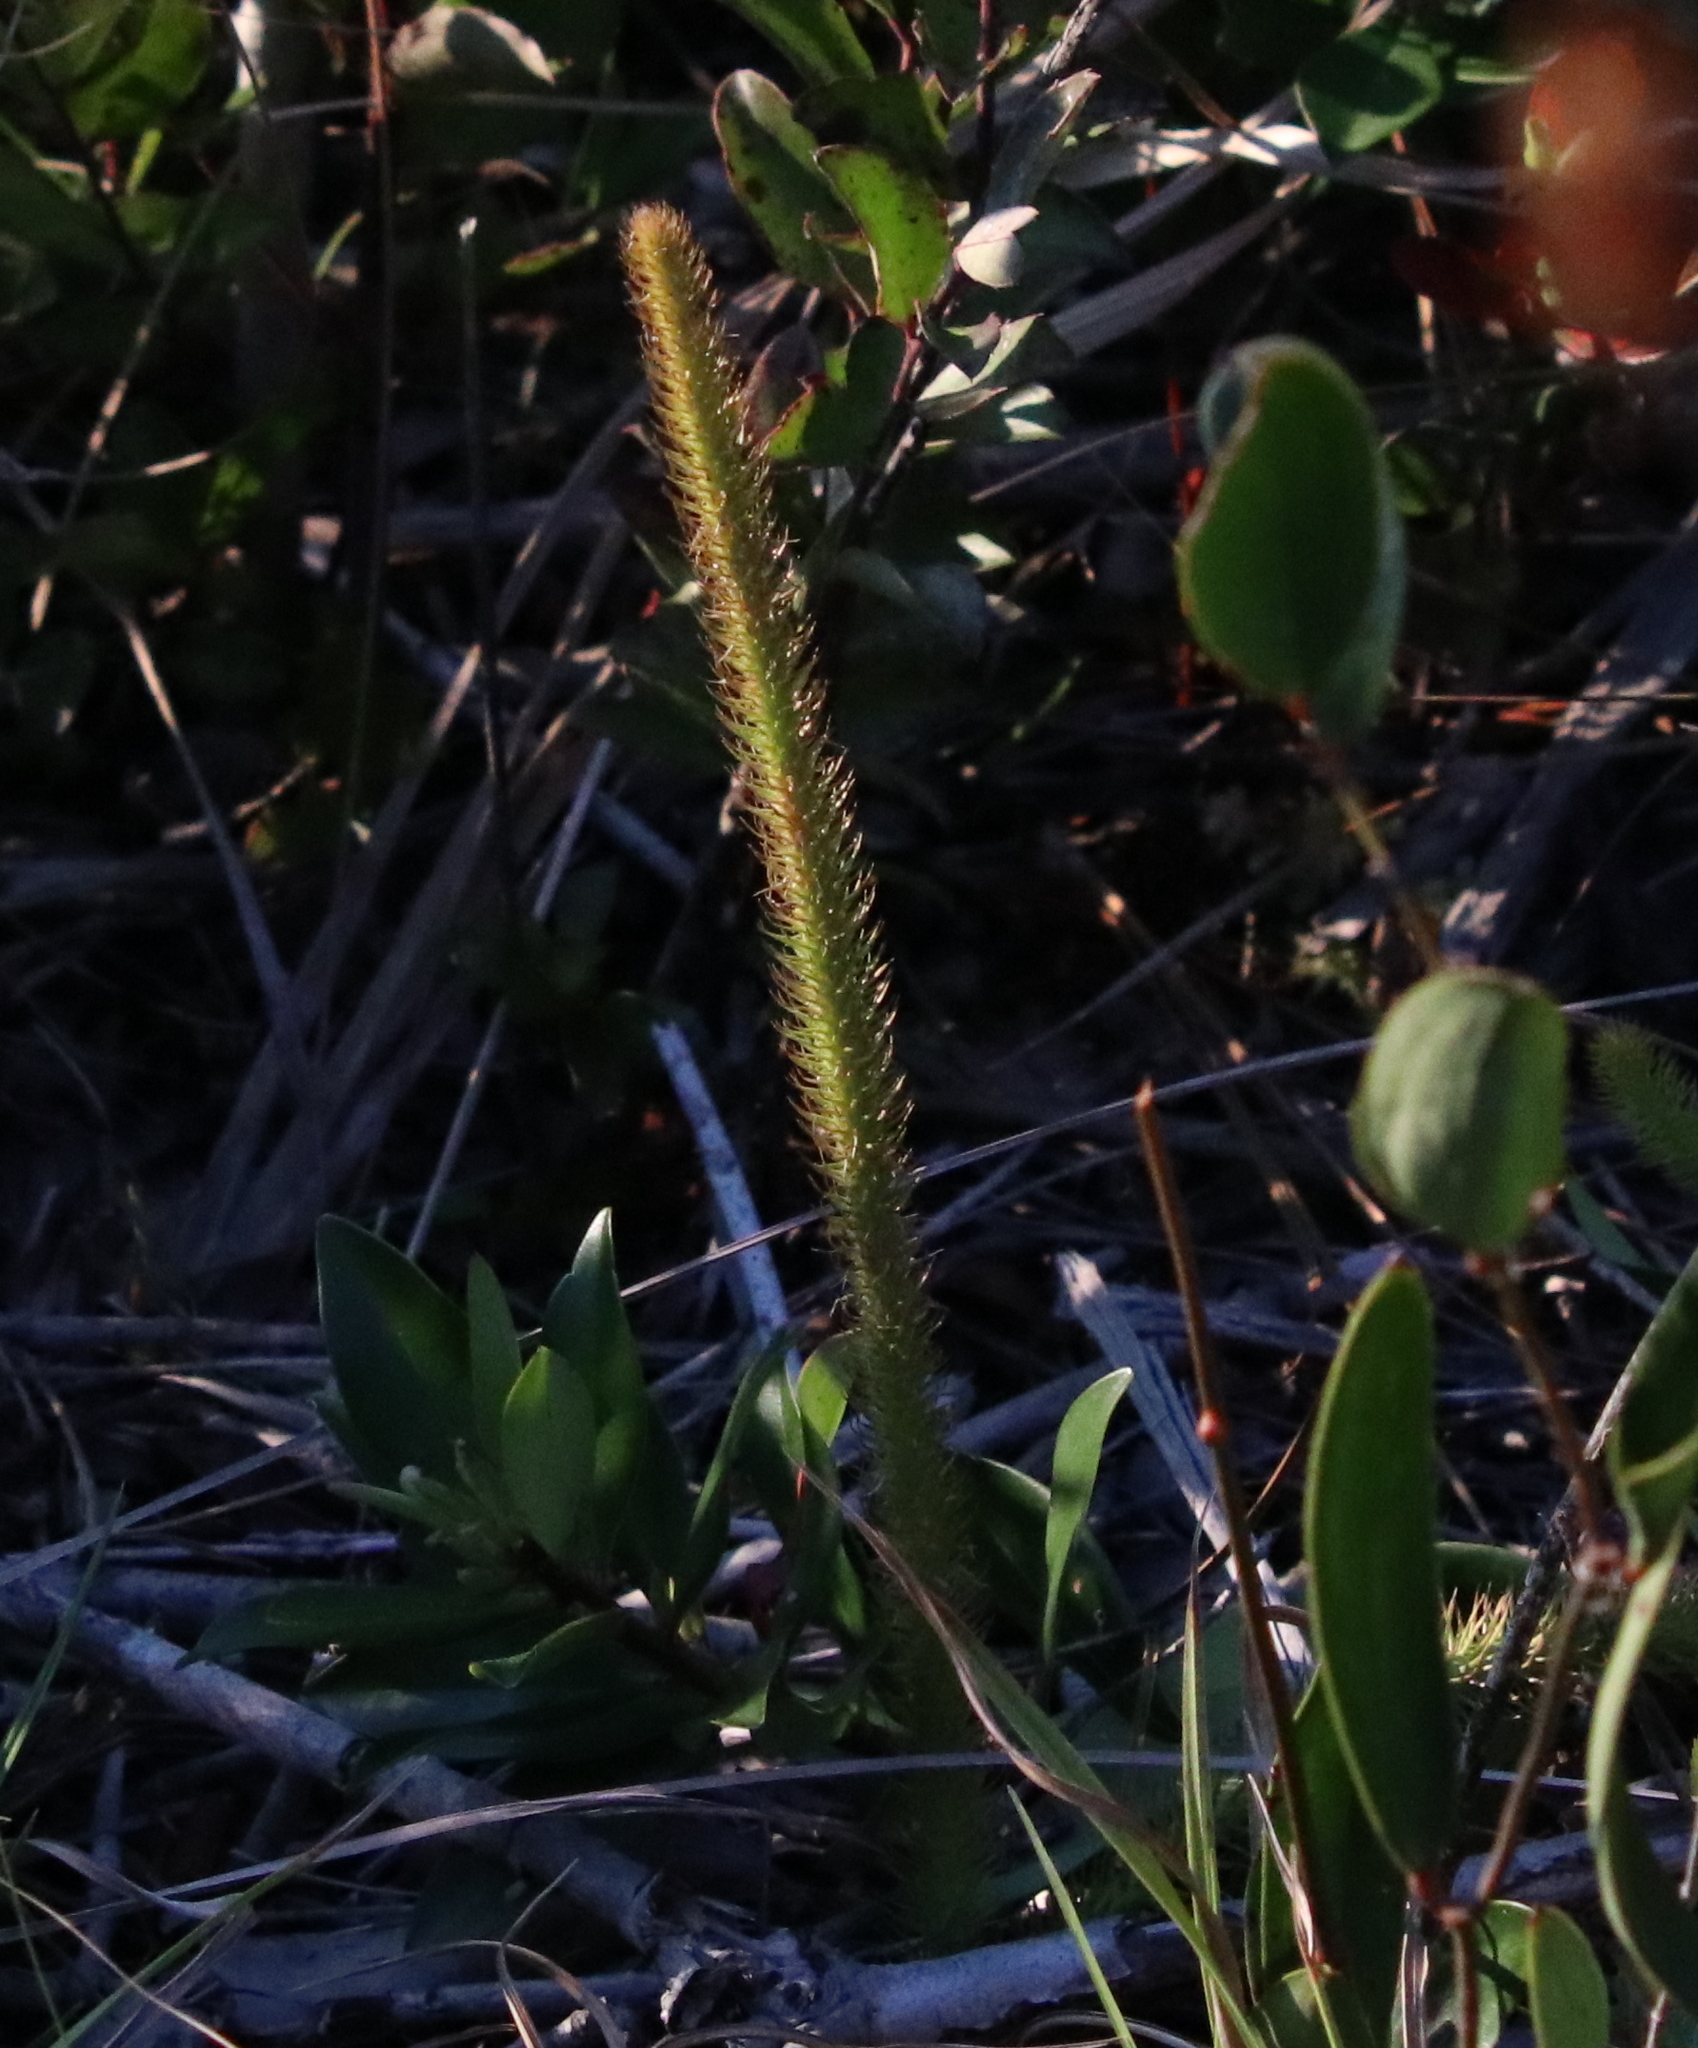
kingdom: Plantae
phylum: Tracheophyta
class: Lycopodiopsida
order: Lycopodiales
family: Lycopodiaceae
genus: Lycopodiella
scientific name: Lycopodiella alopecuroides
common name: Foxtail clubmoss
